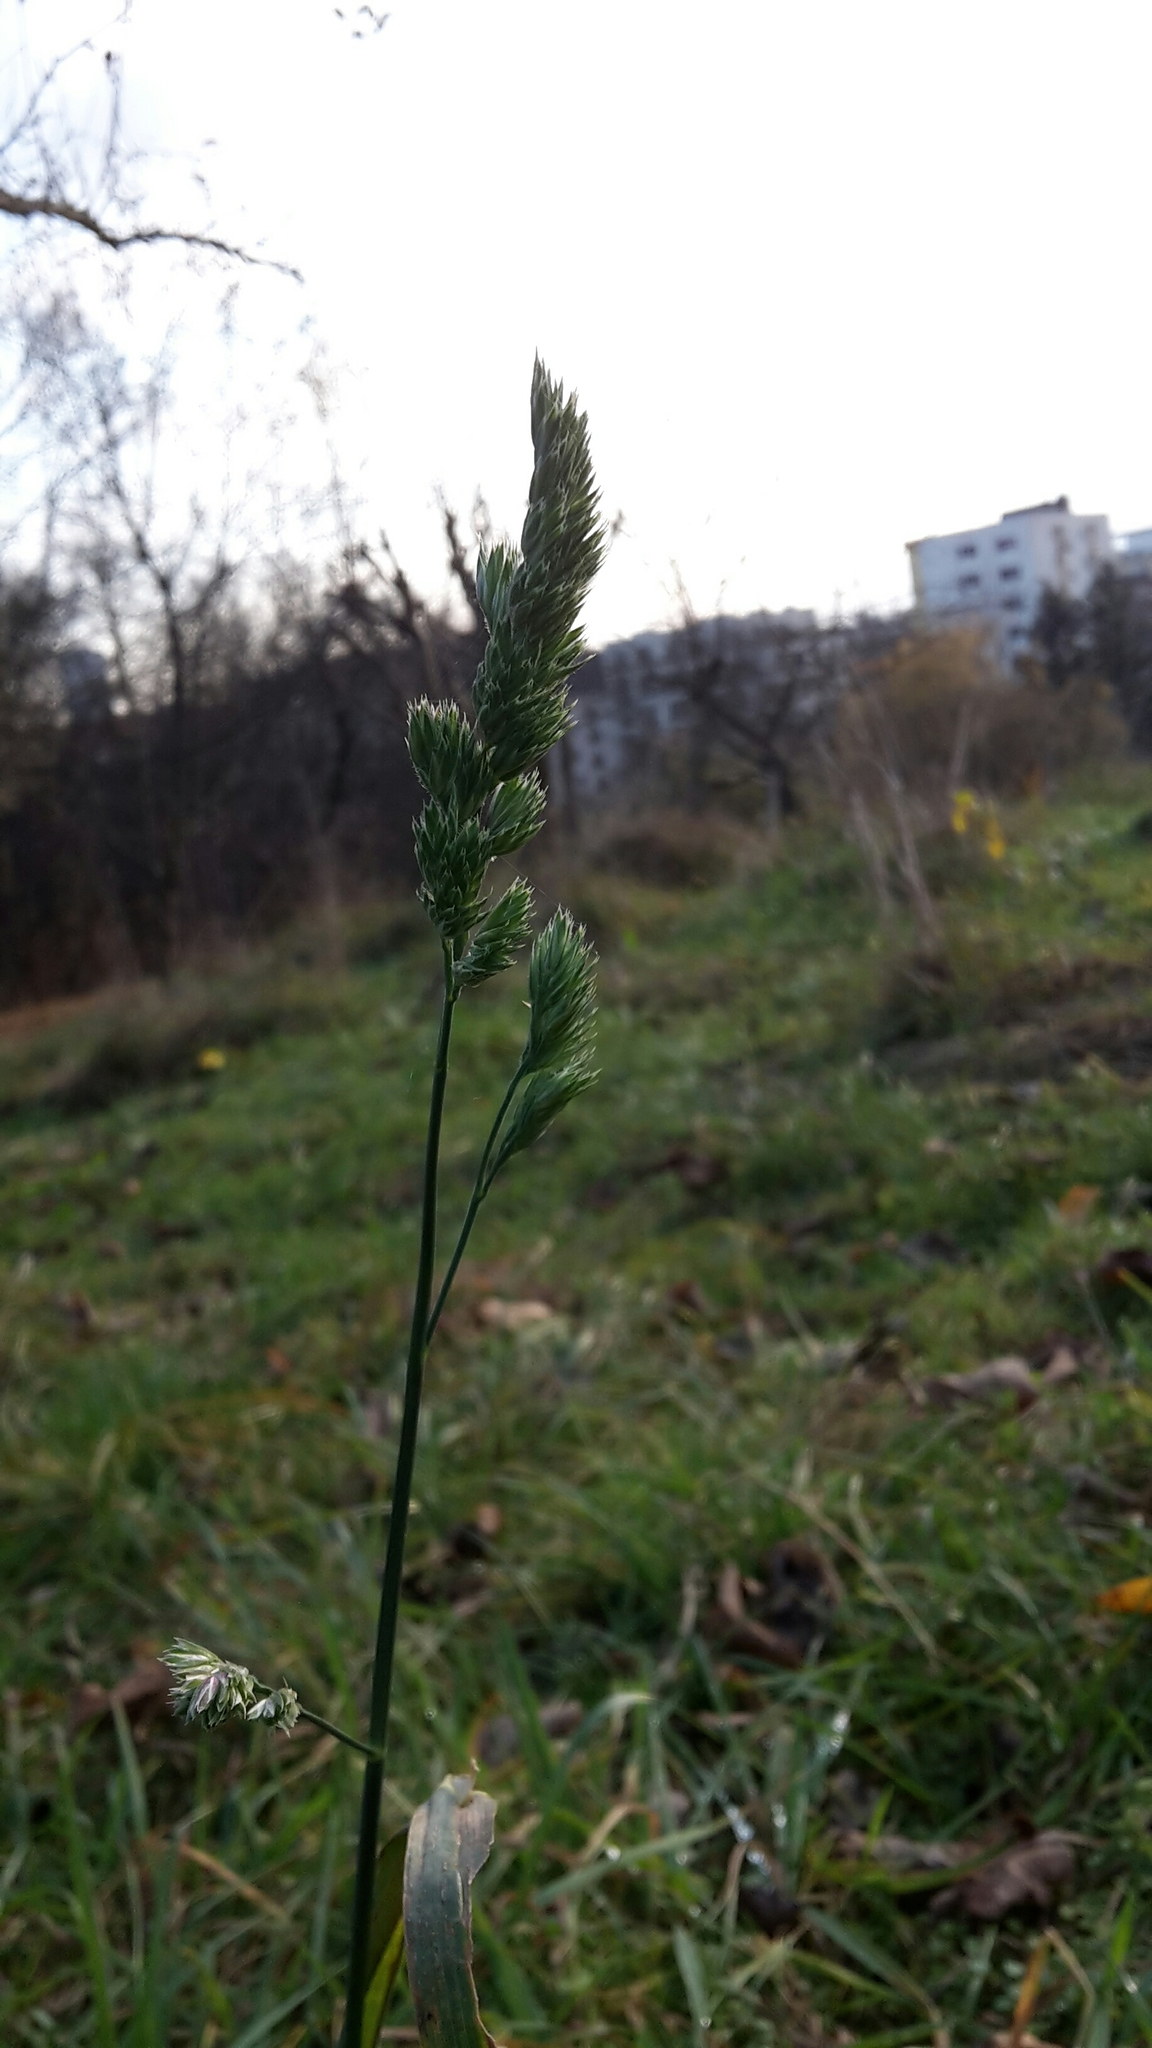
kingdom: Plantae
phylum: Tracheophyta
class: Liliopsida
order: Poales
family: Poaceae
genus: Dactylis
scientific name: Dactylis glomerata
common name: Orchardgrass
